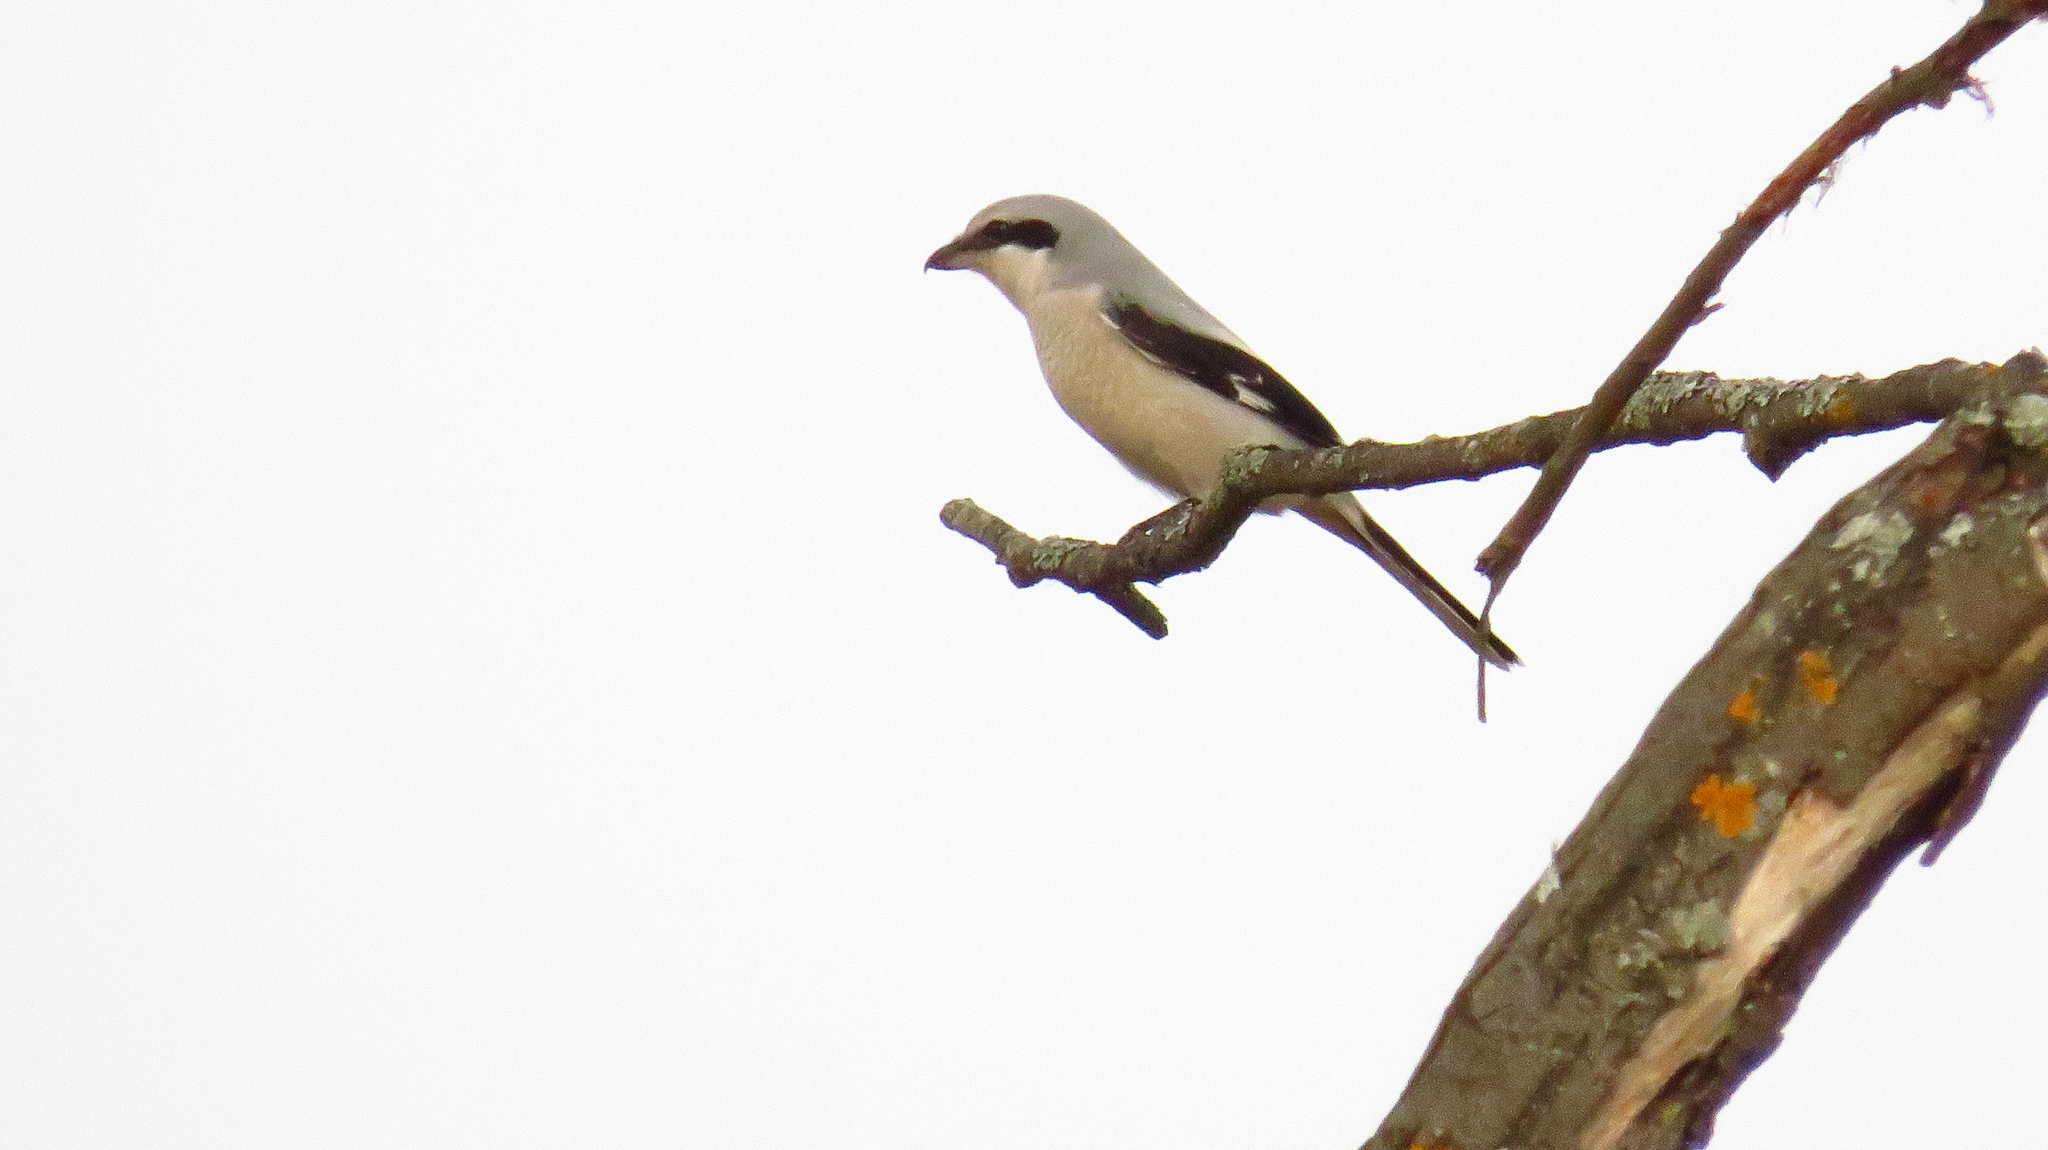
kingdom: Animalia
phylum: Chordata
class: Aves
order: Passeriformes
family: Laniidae
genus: Lanius
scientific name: Lanius excubitor
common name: Great grey shrike
